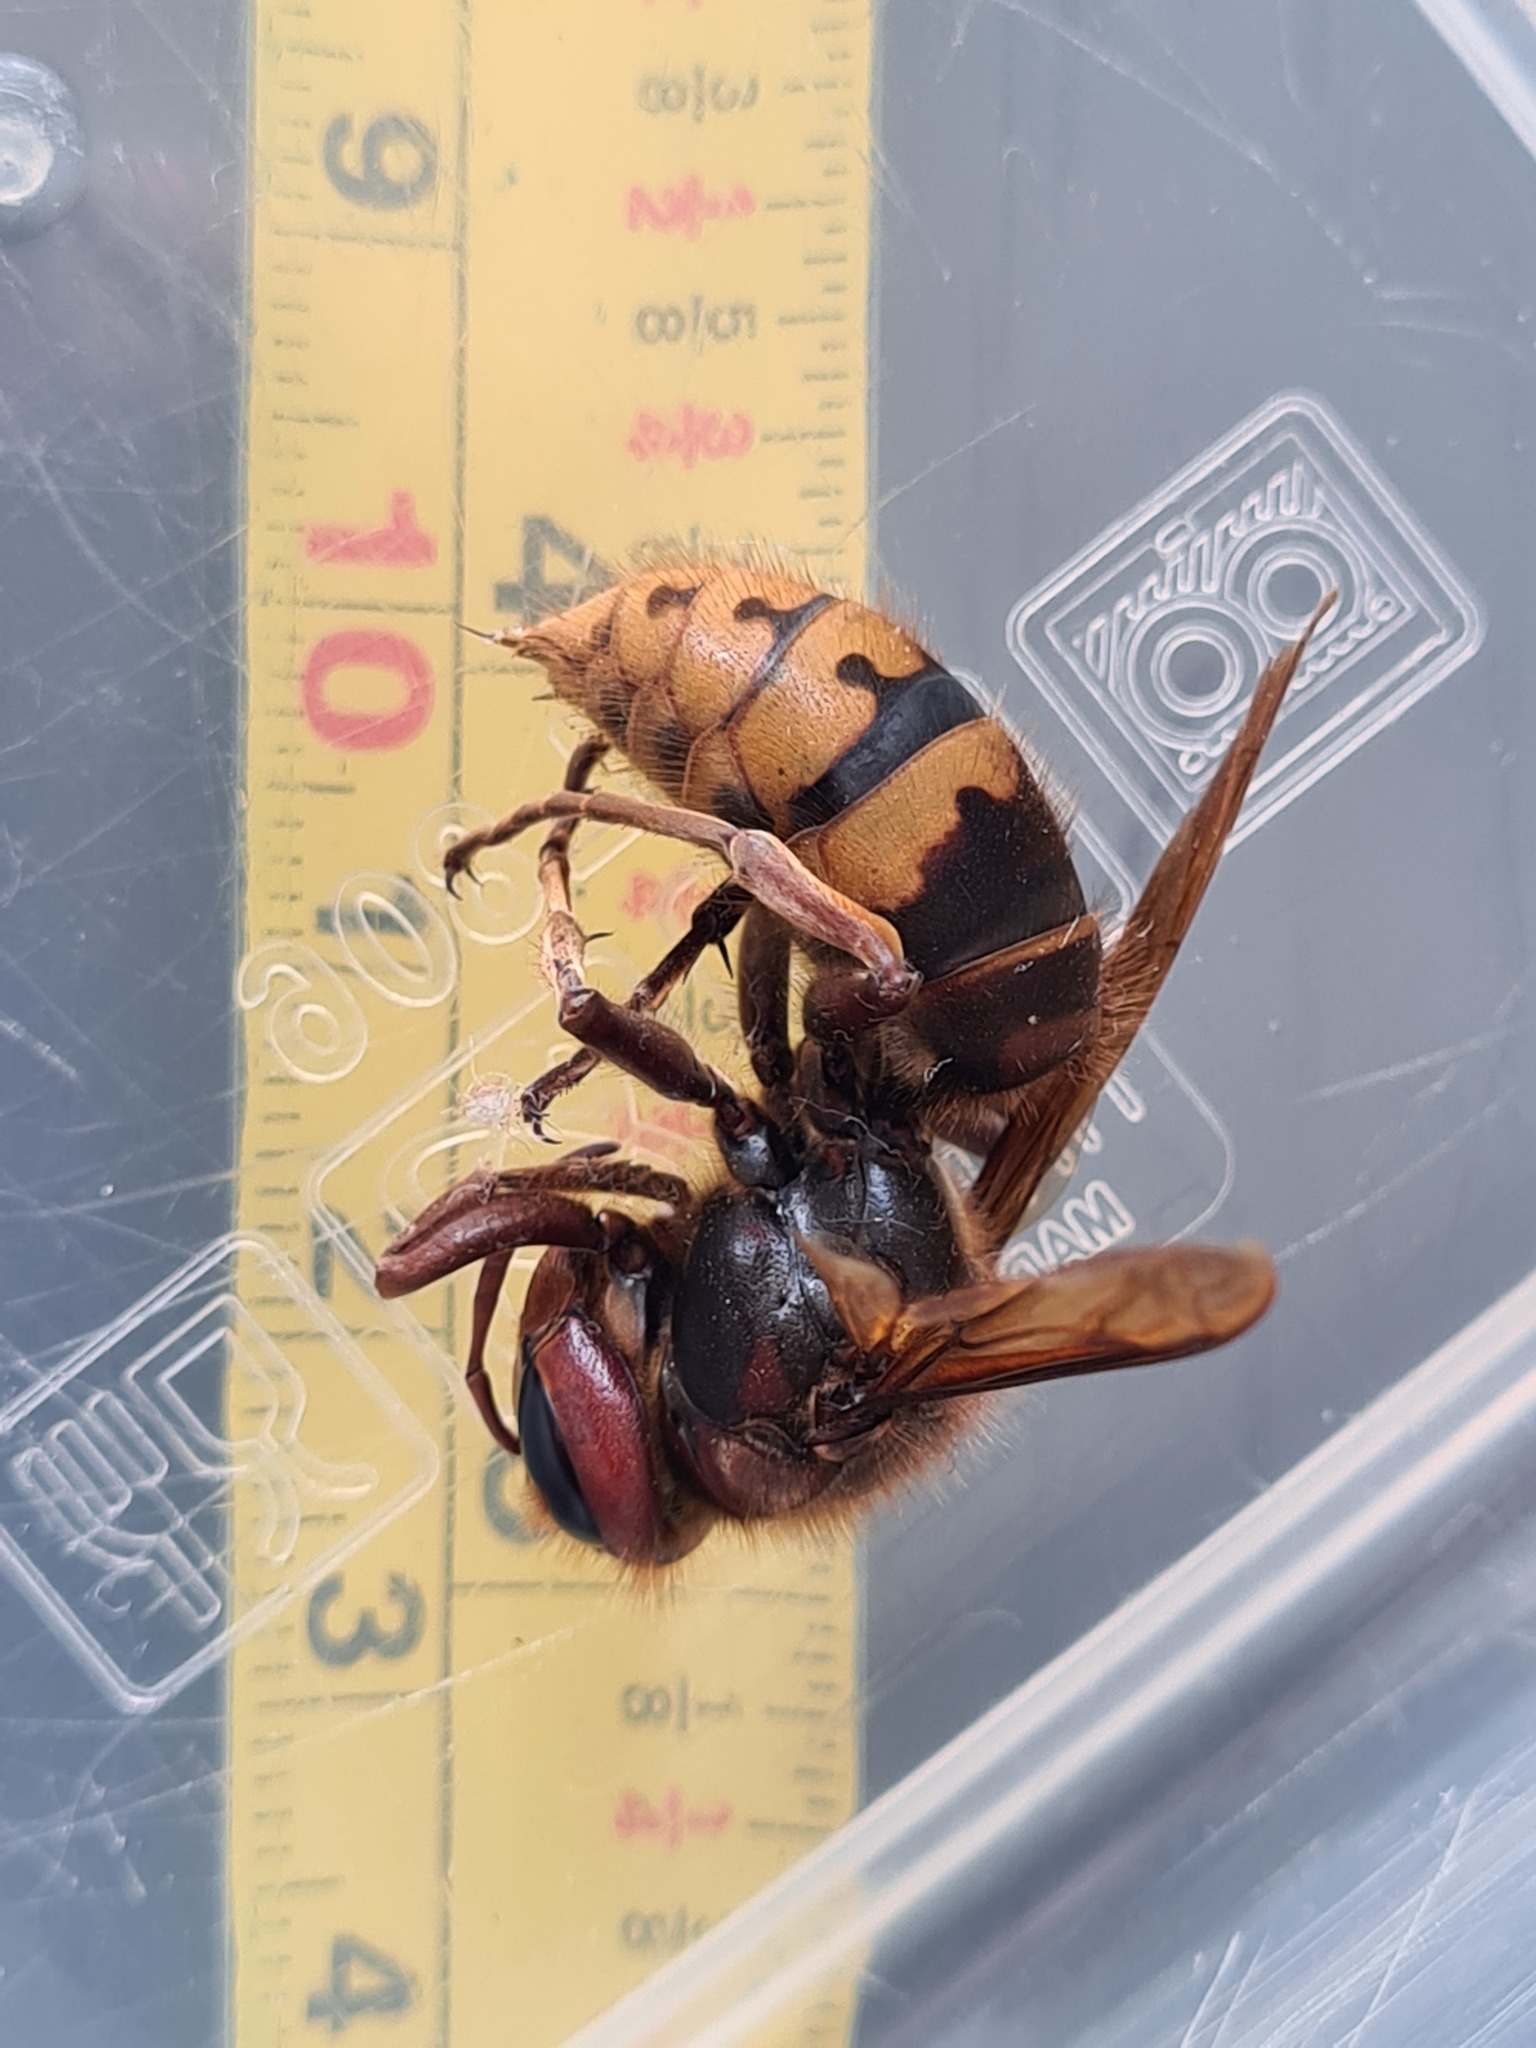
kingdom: Animalia
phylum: Arthropoda
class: Insecta
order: Hymenoptera
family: Vespidae
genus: Vespa
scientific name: Vespa crabro
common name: Hornet
